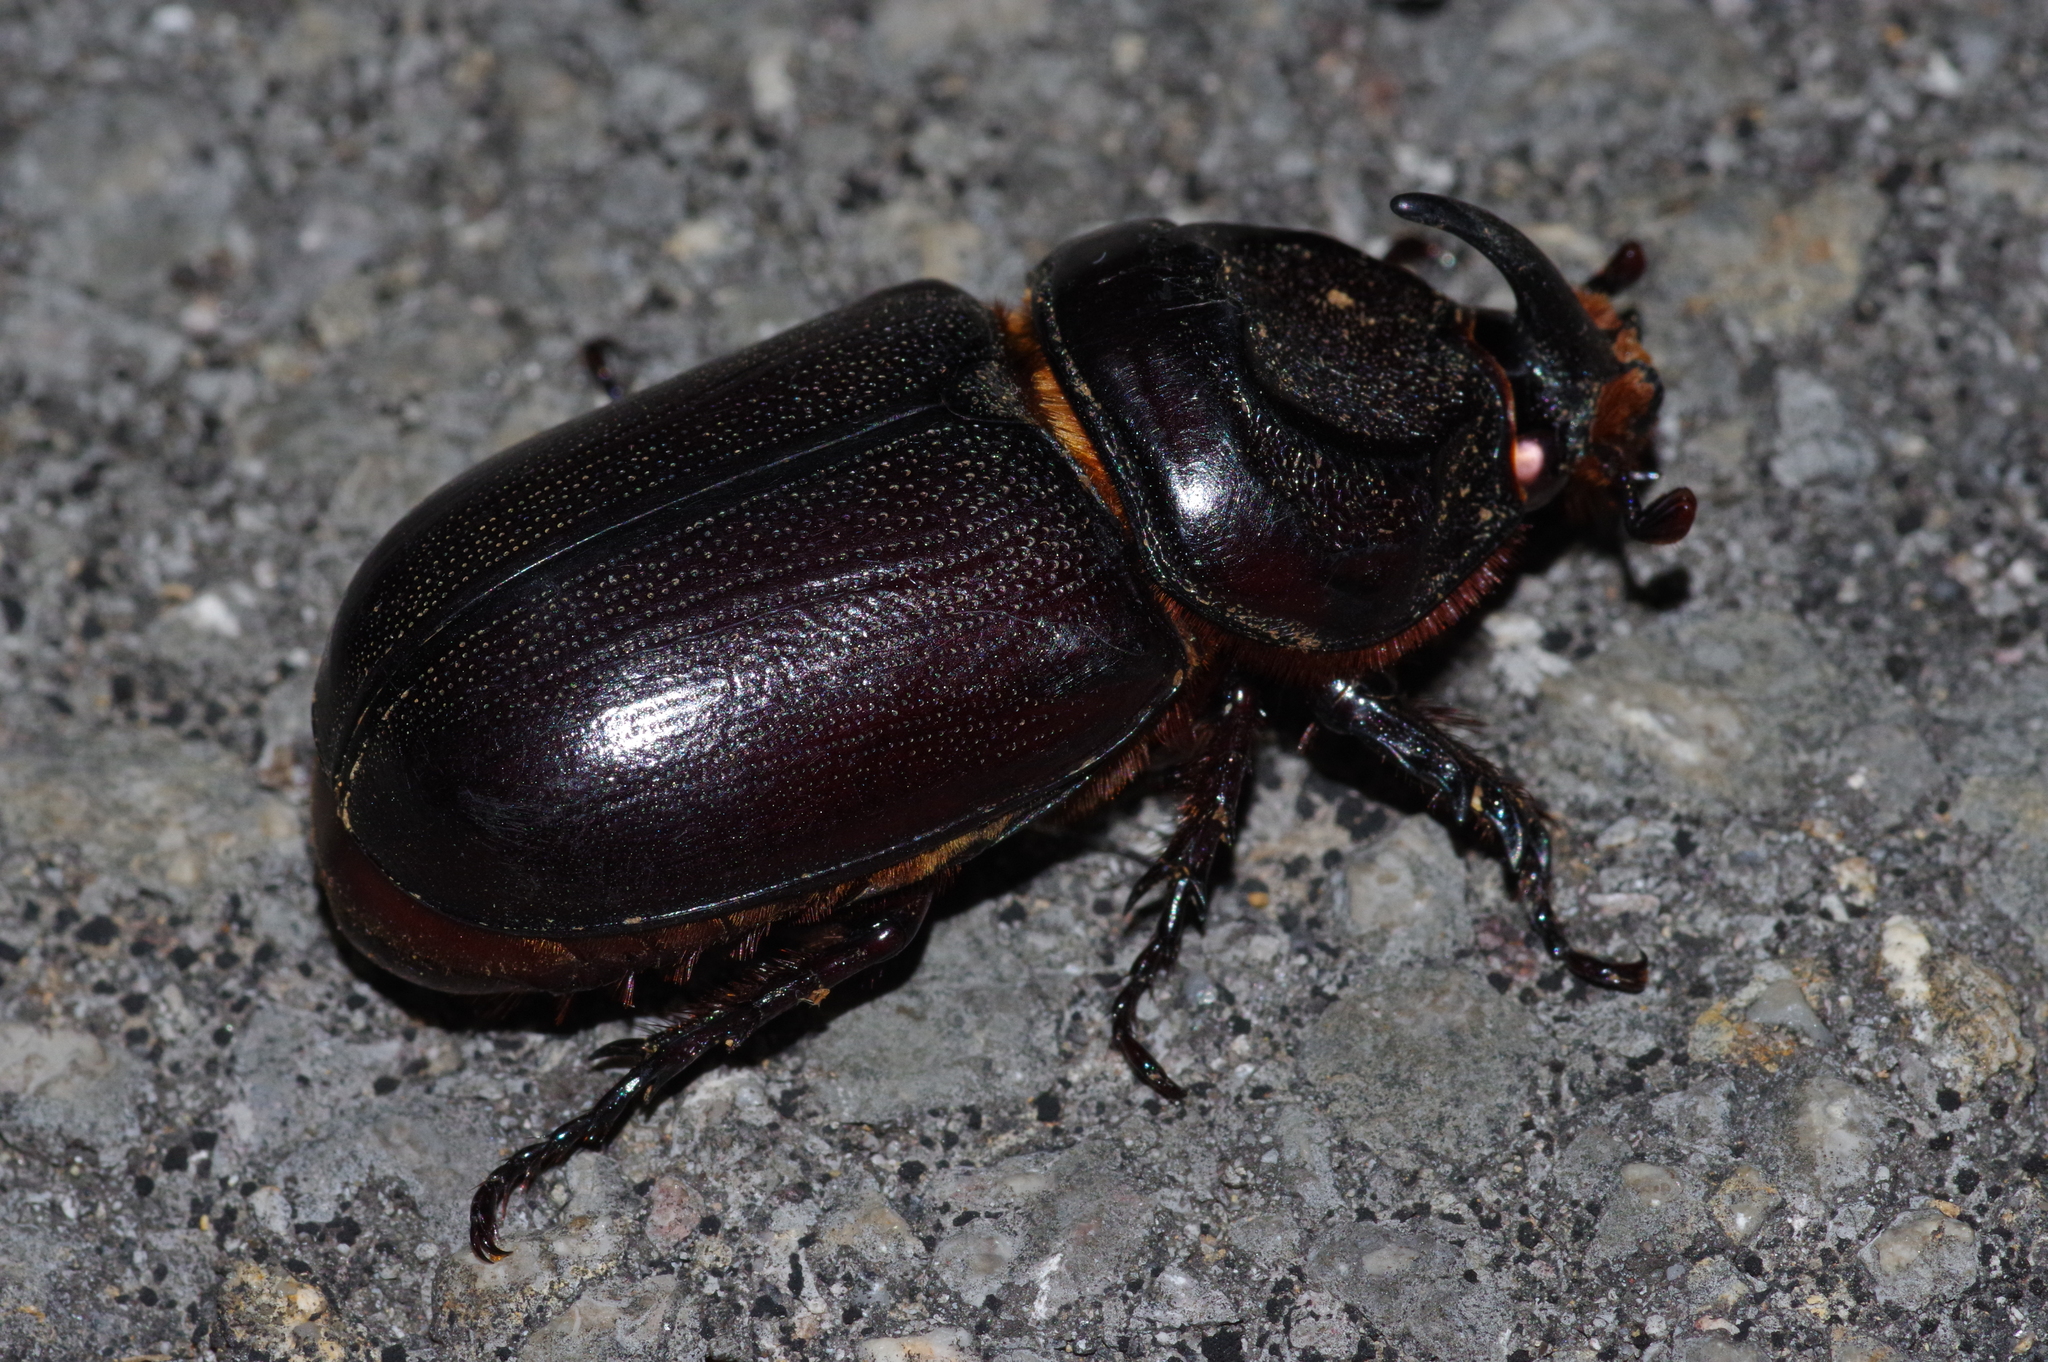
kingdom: Animalia
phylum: Arthropoda
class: Insecta
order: Coleoptera
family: Scarabaeidae
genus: Oryctes
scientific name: Oryctes rhinoceros
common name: Coconut rhinoceros beetle
